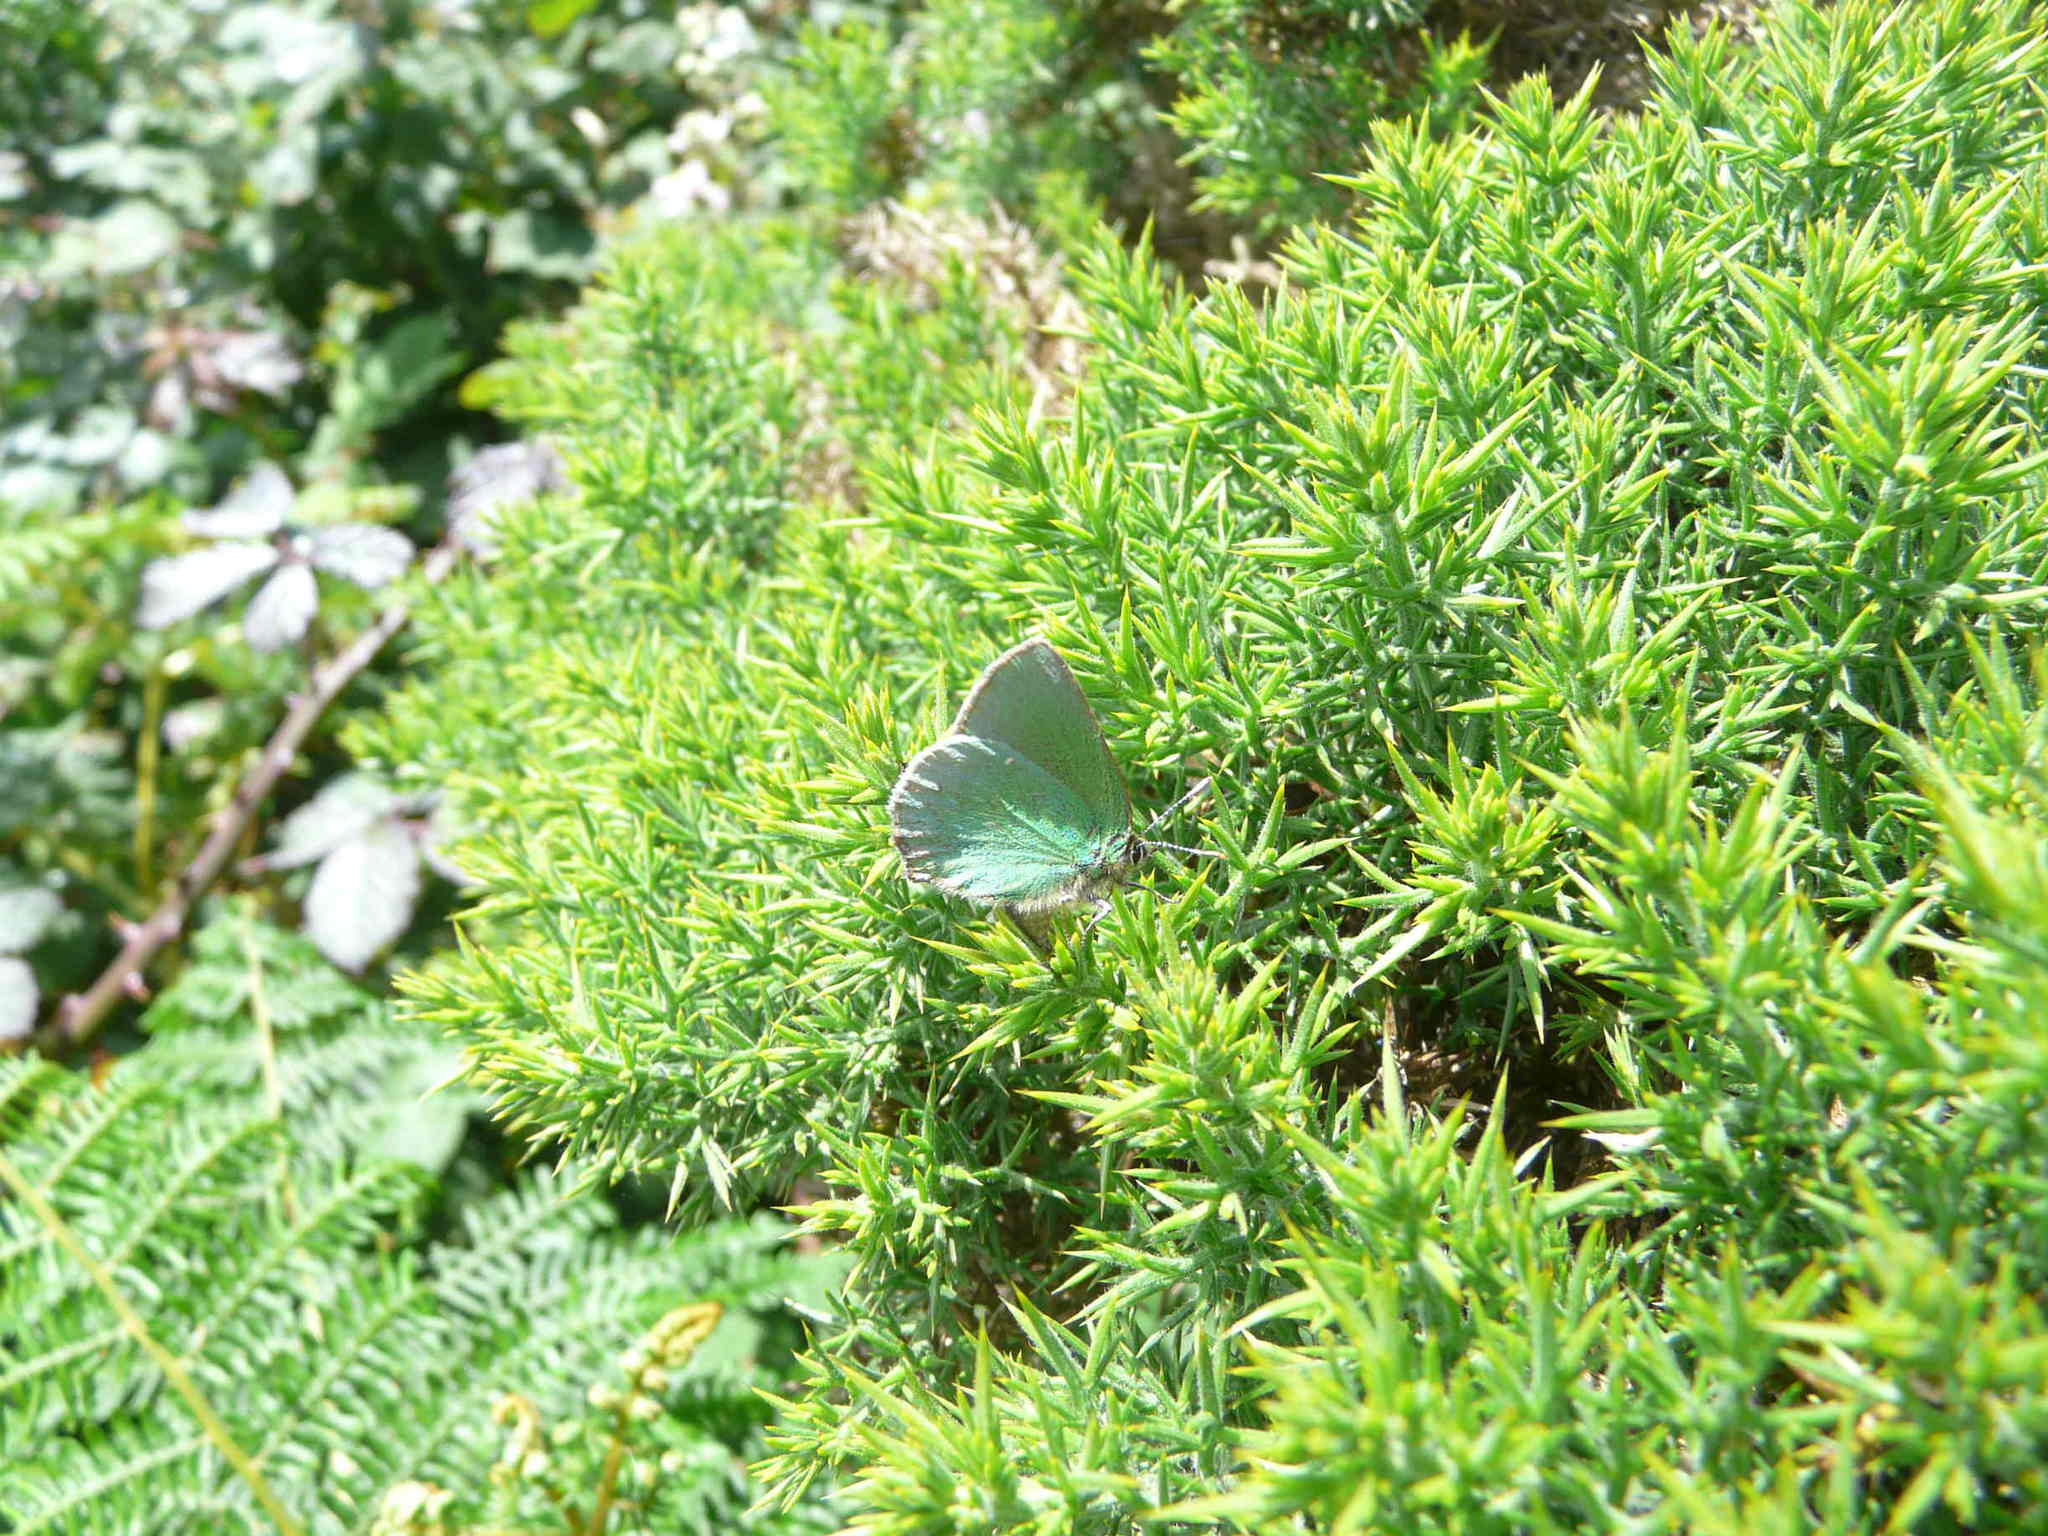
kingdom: Animalia
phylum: Arthropoda
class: Insecta
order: Lepidoptera
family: Lycaenidae
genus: Callophrys
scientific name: Callophrys rubi
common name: Green hairstreak
